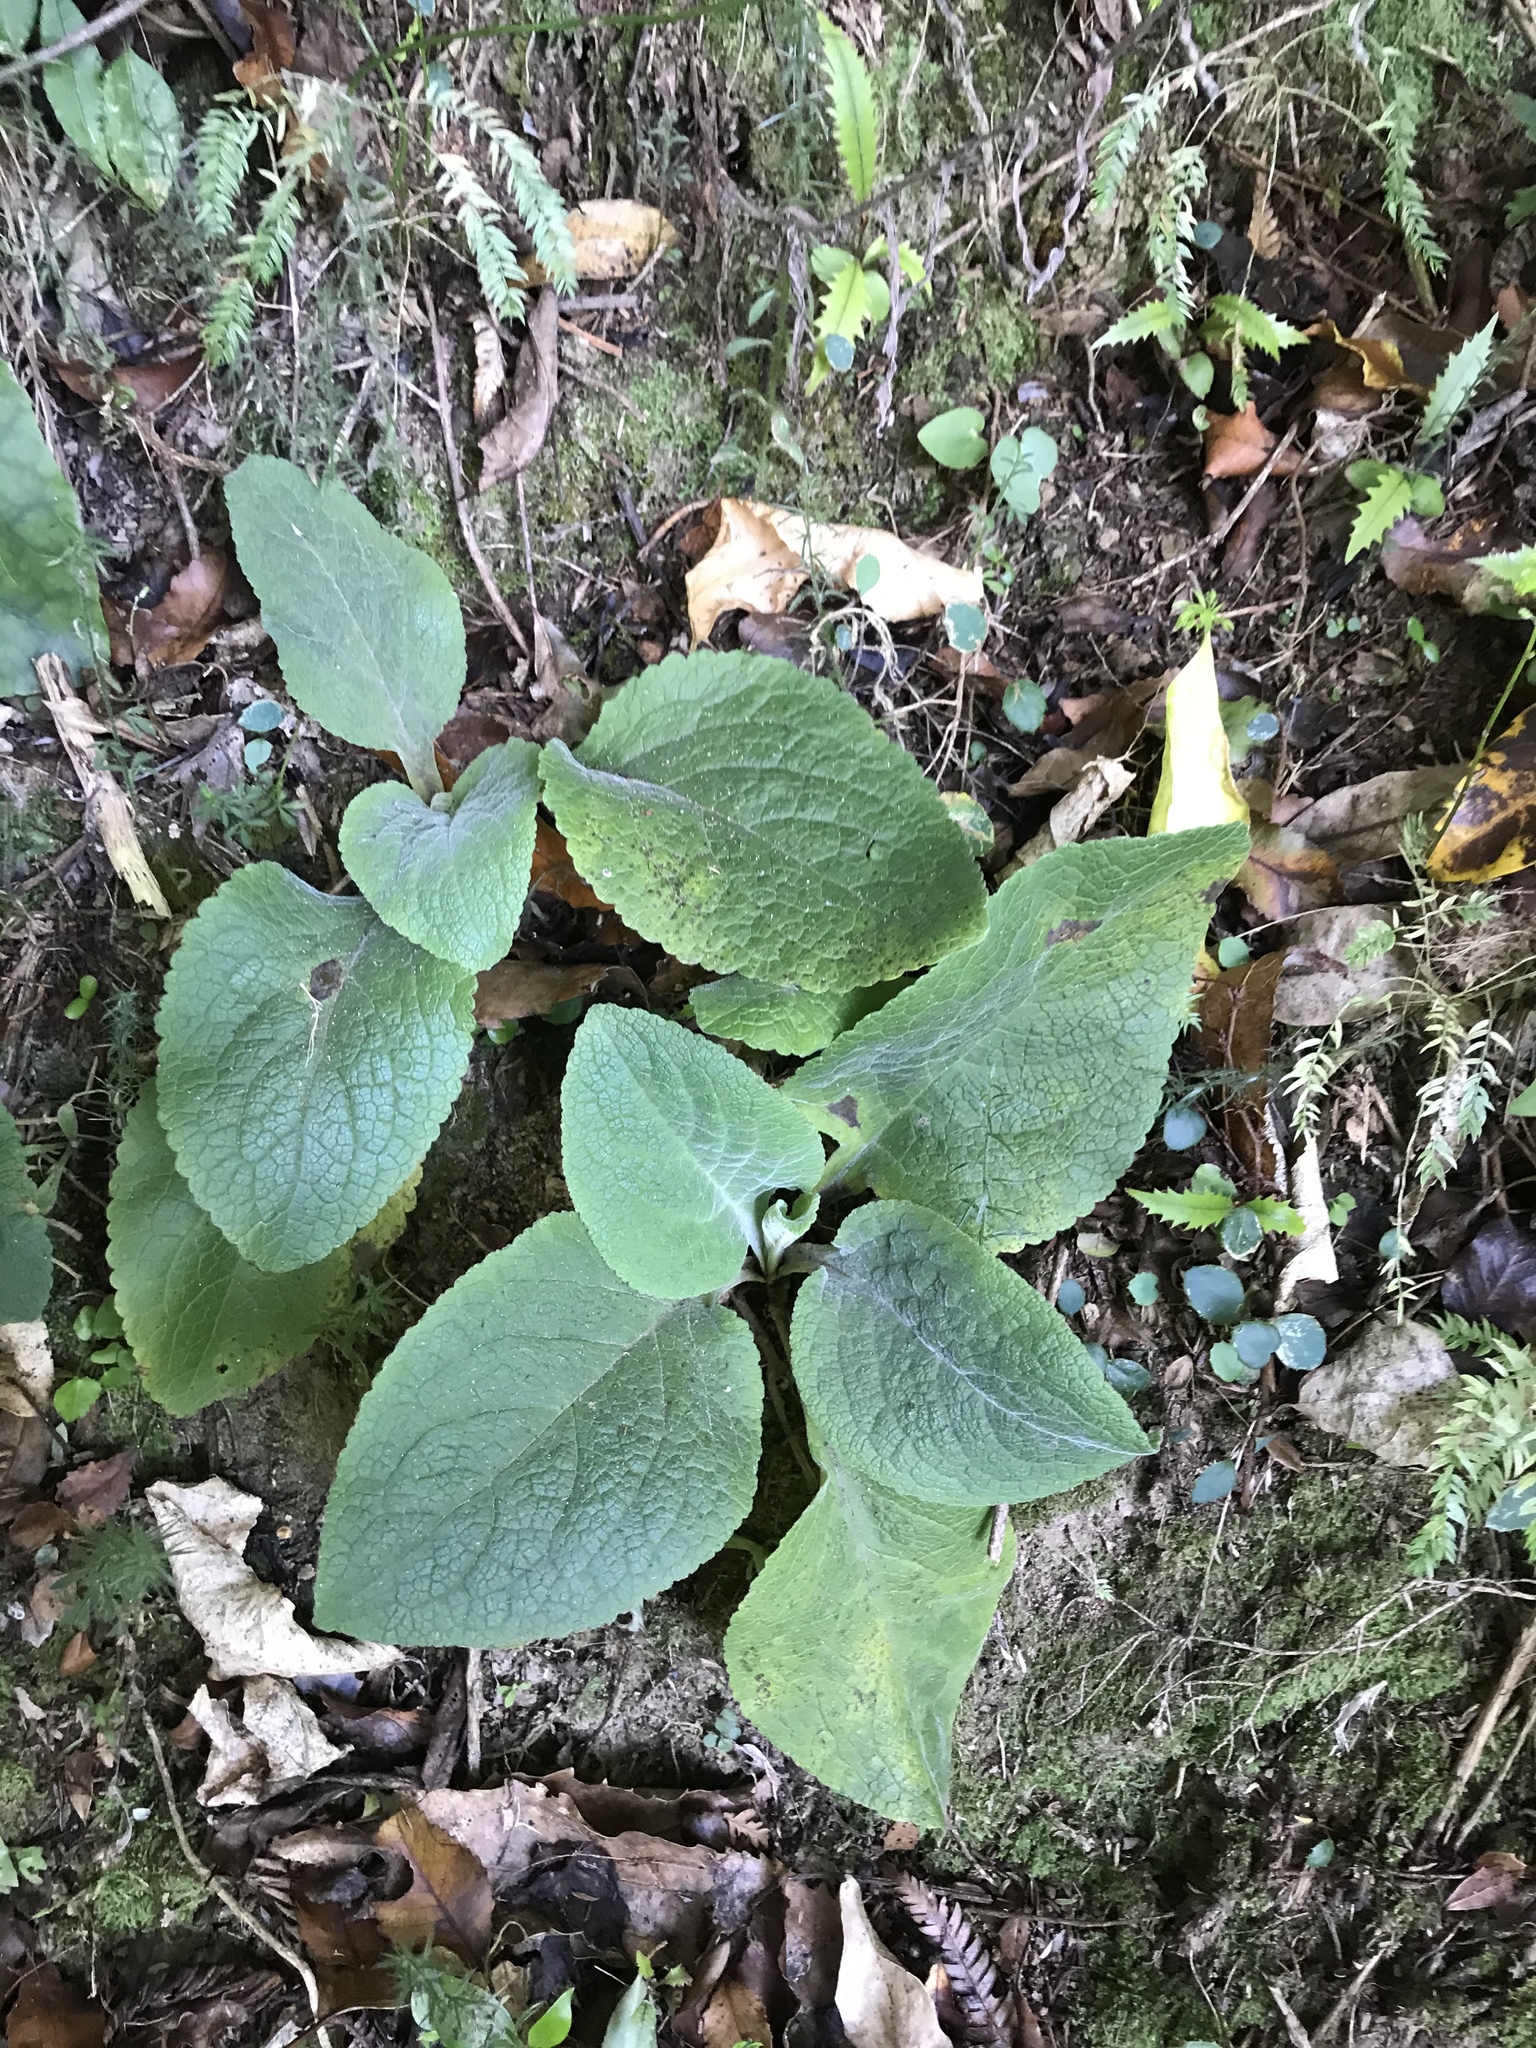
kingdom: Plantae
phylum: Tracheophyta
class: Magnoliopsida
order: Lamiales
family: Plantaginaceae
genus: Digitalis
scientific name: Digitalis purpurea
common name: Foxglove
